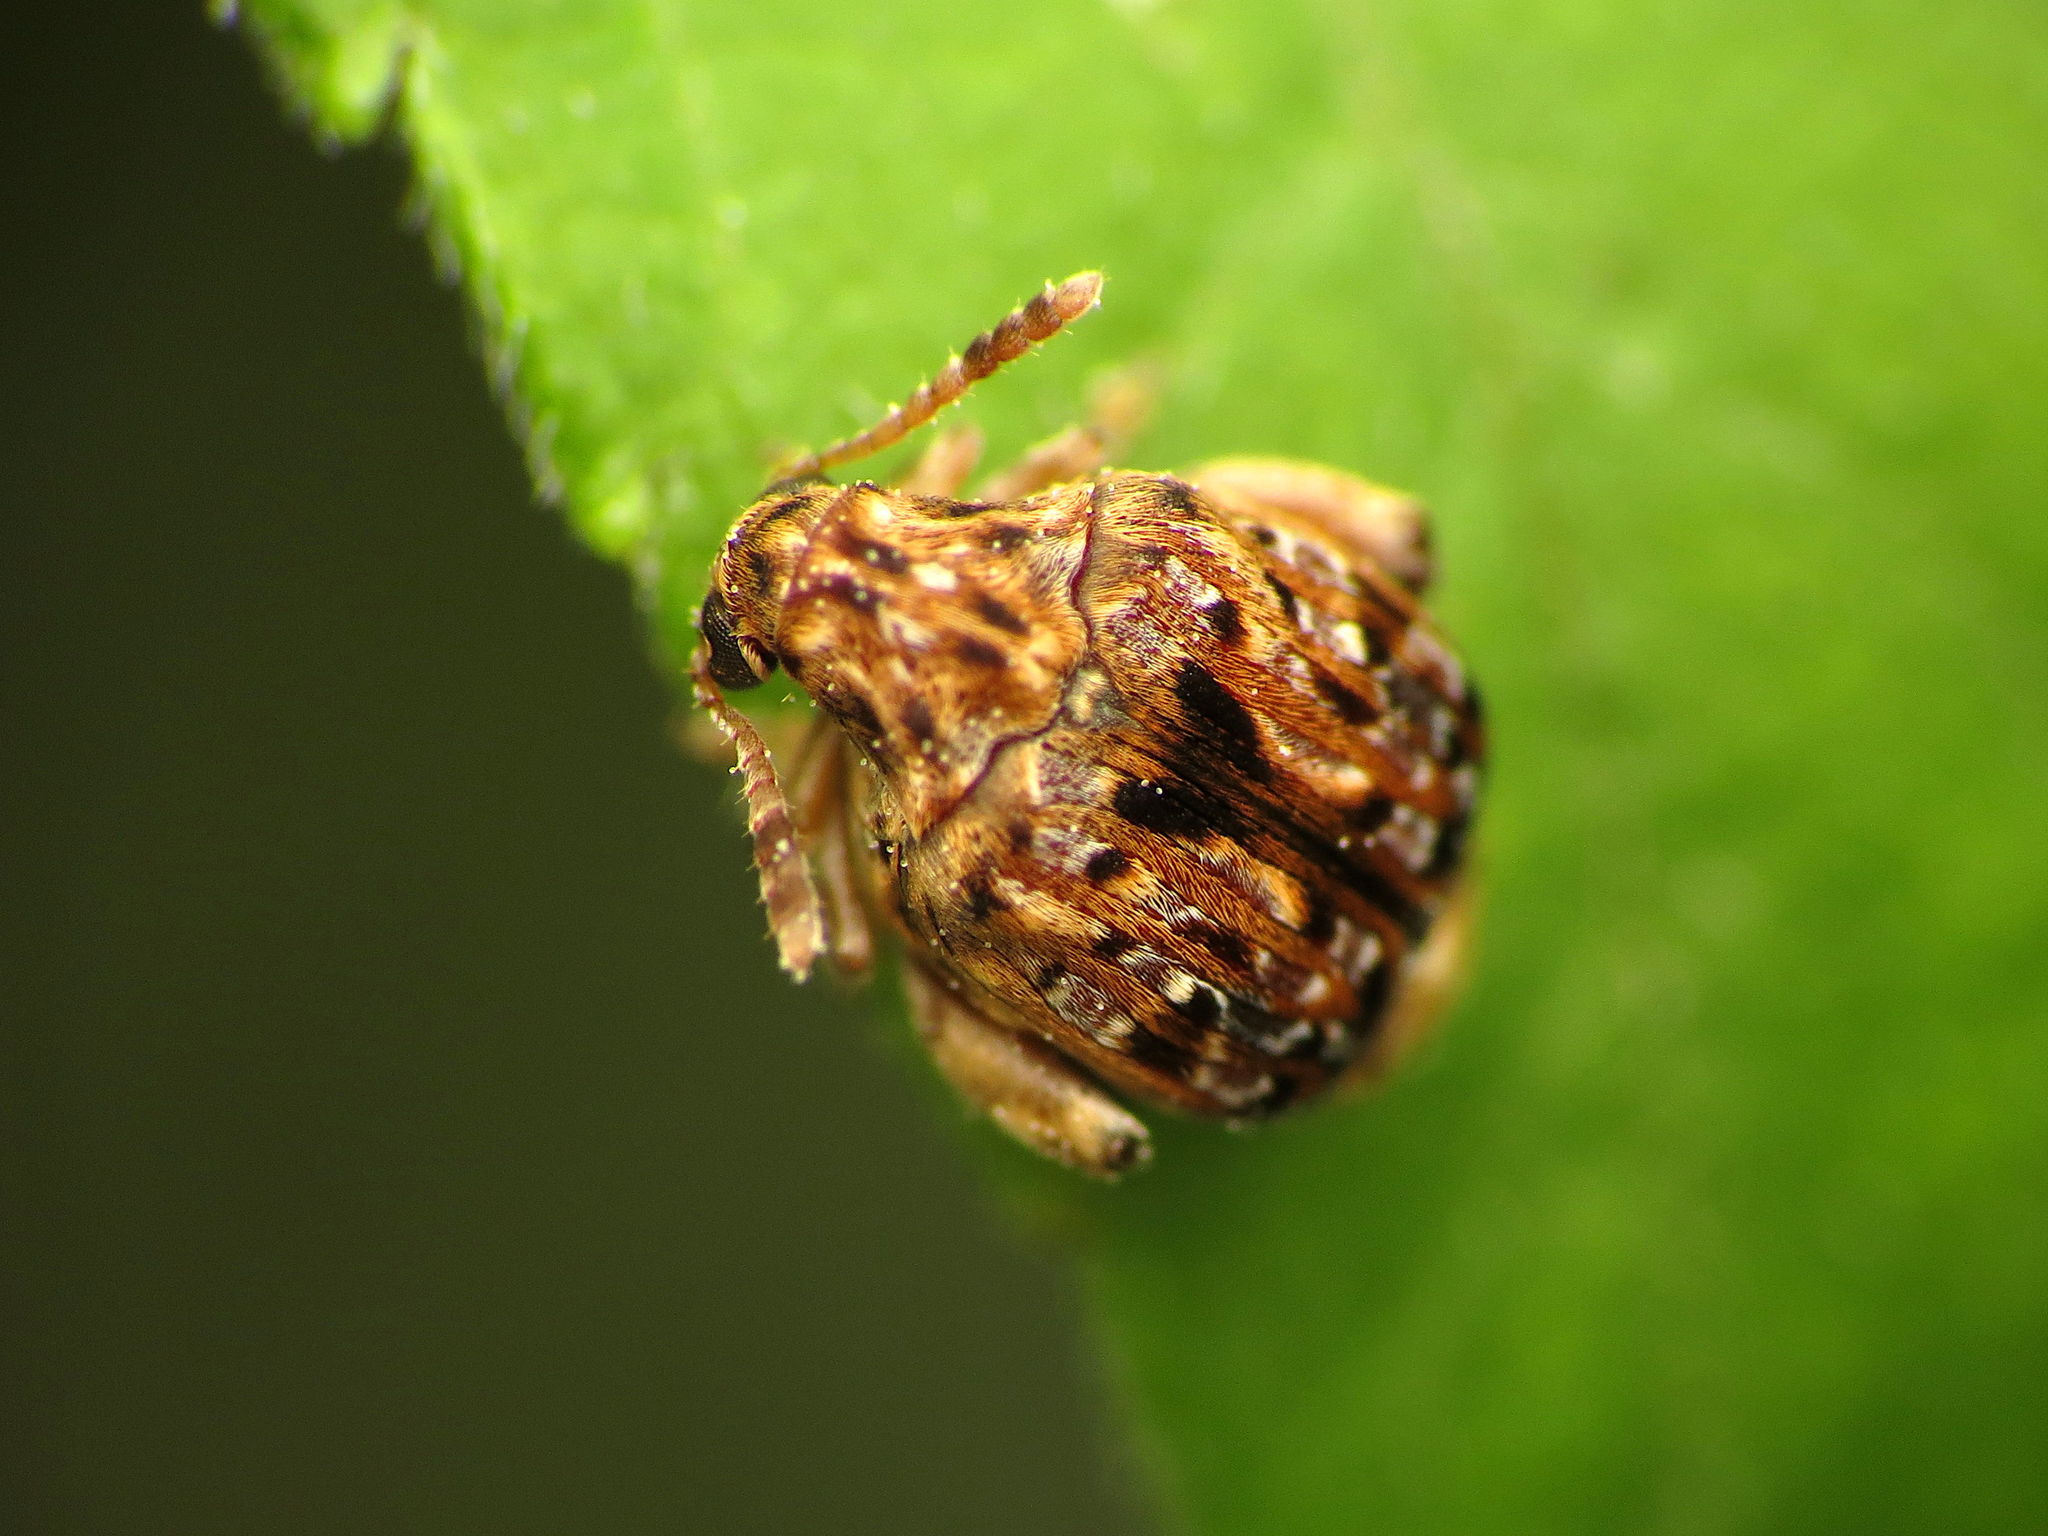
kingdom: Animalia
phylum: Arthropoda
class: Insecta
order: Coleoptera
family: Chrysomelidae
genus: Gibbobruchus
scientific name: Gibbobruchus mimus
